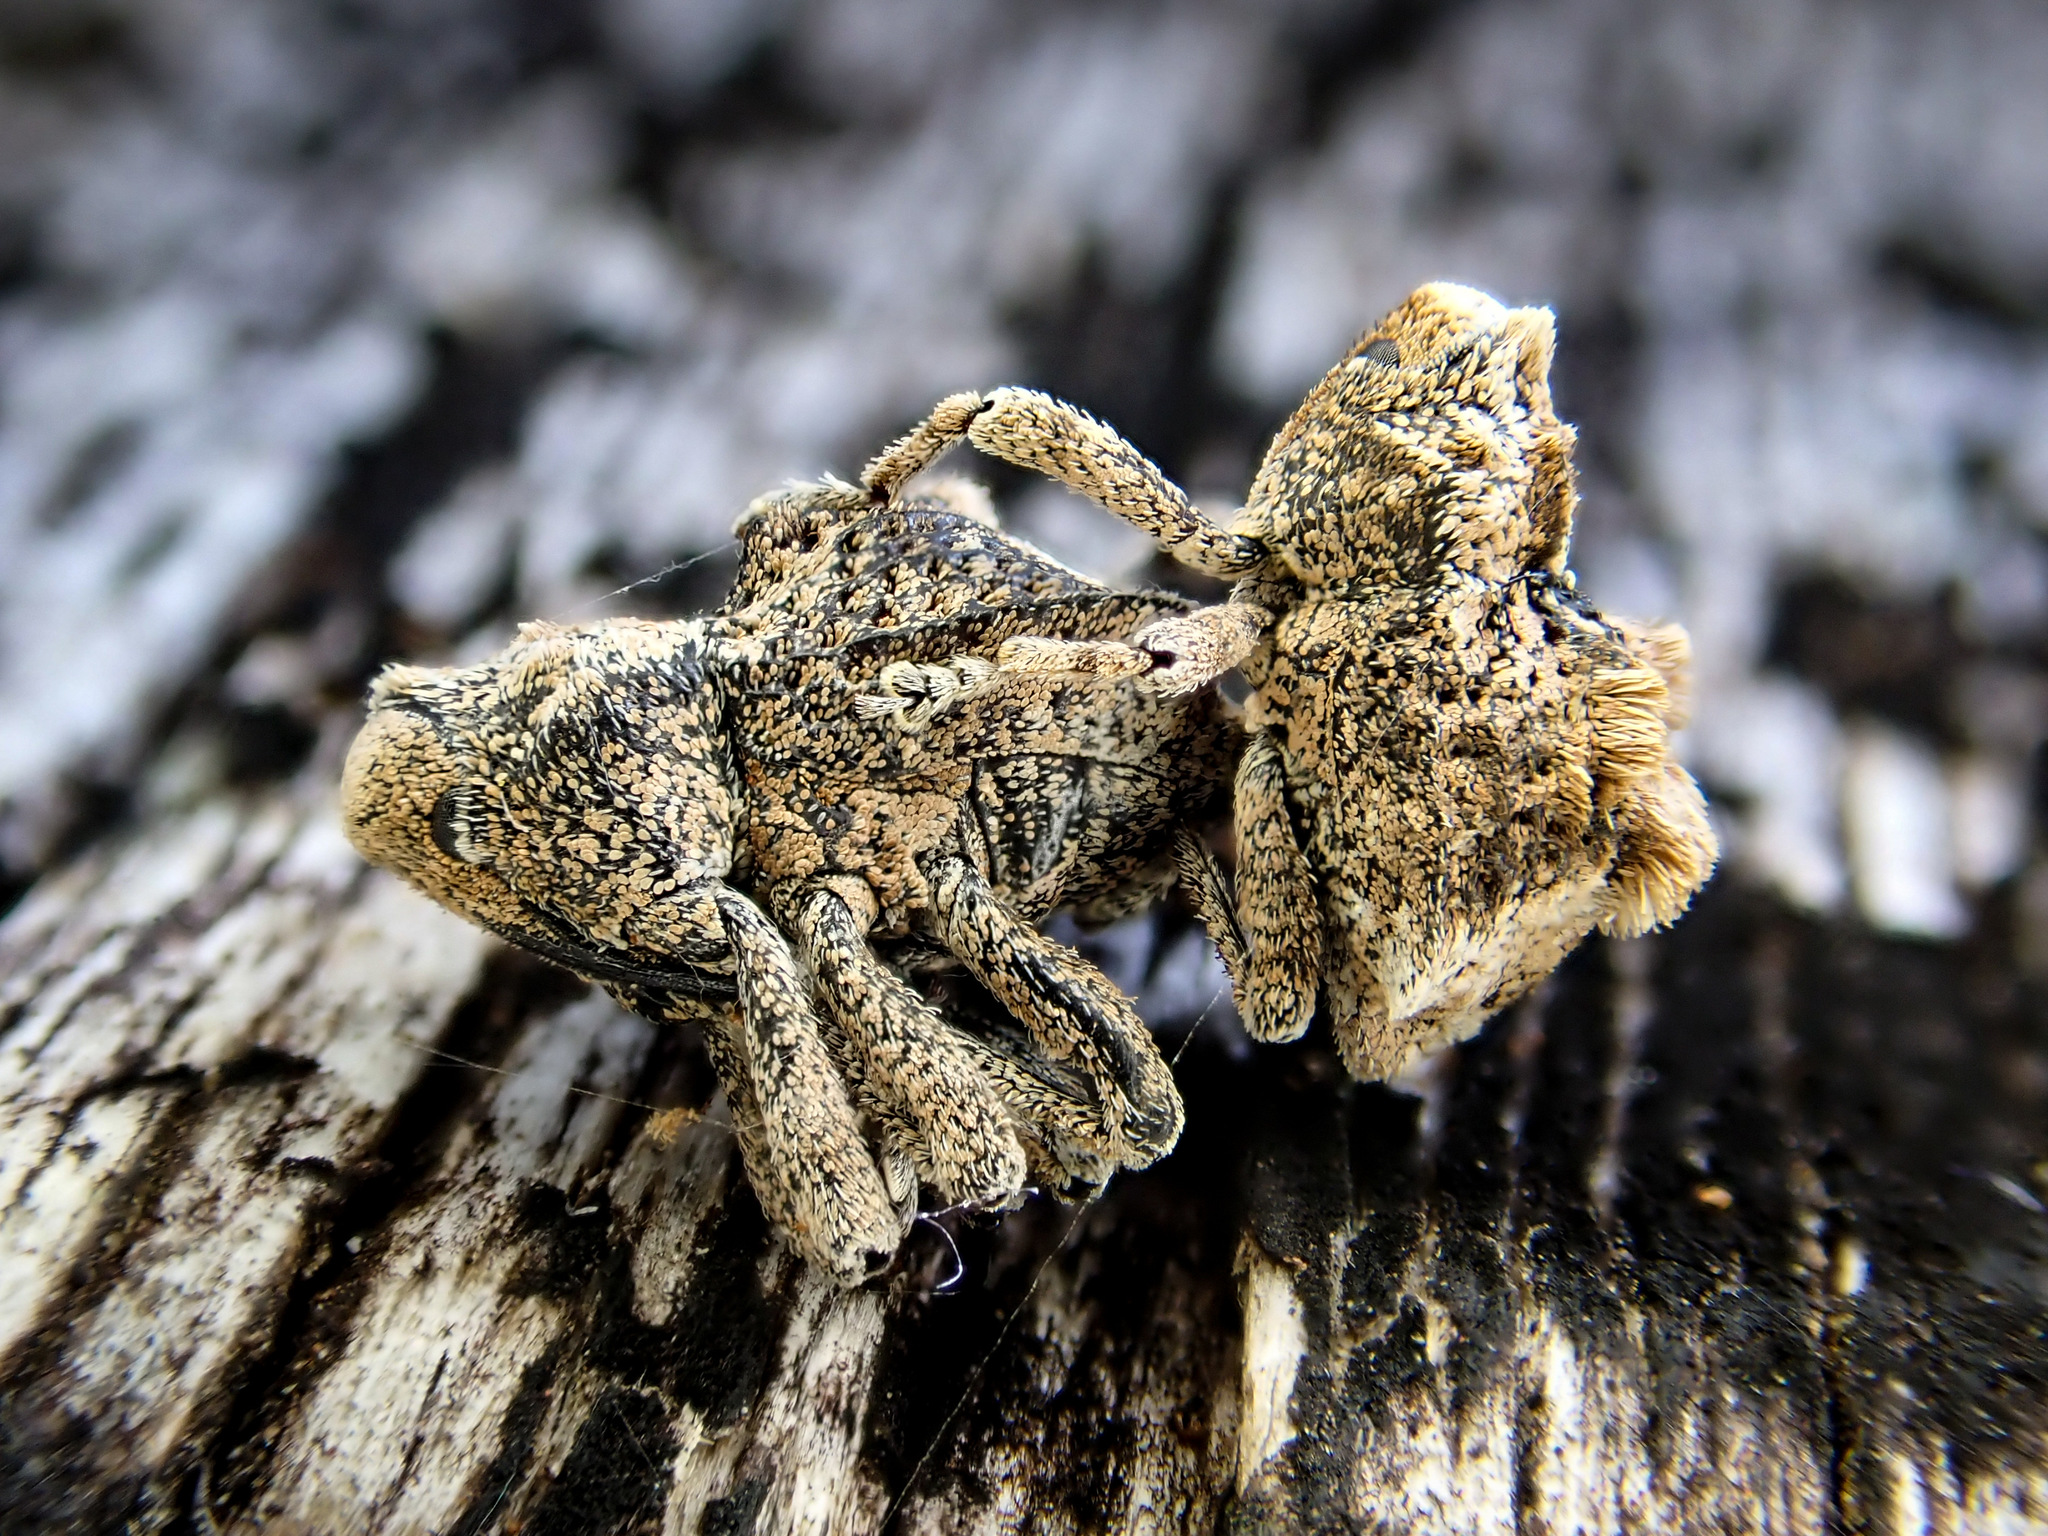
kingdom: Animalia
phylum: Arthropoda
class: Insecta
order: Coleoptera
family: Curculionidae
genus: Tychanus
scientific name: Tychanus gibbus
